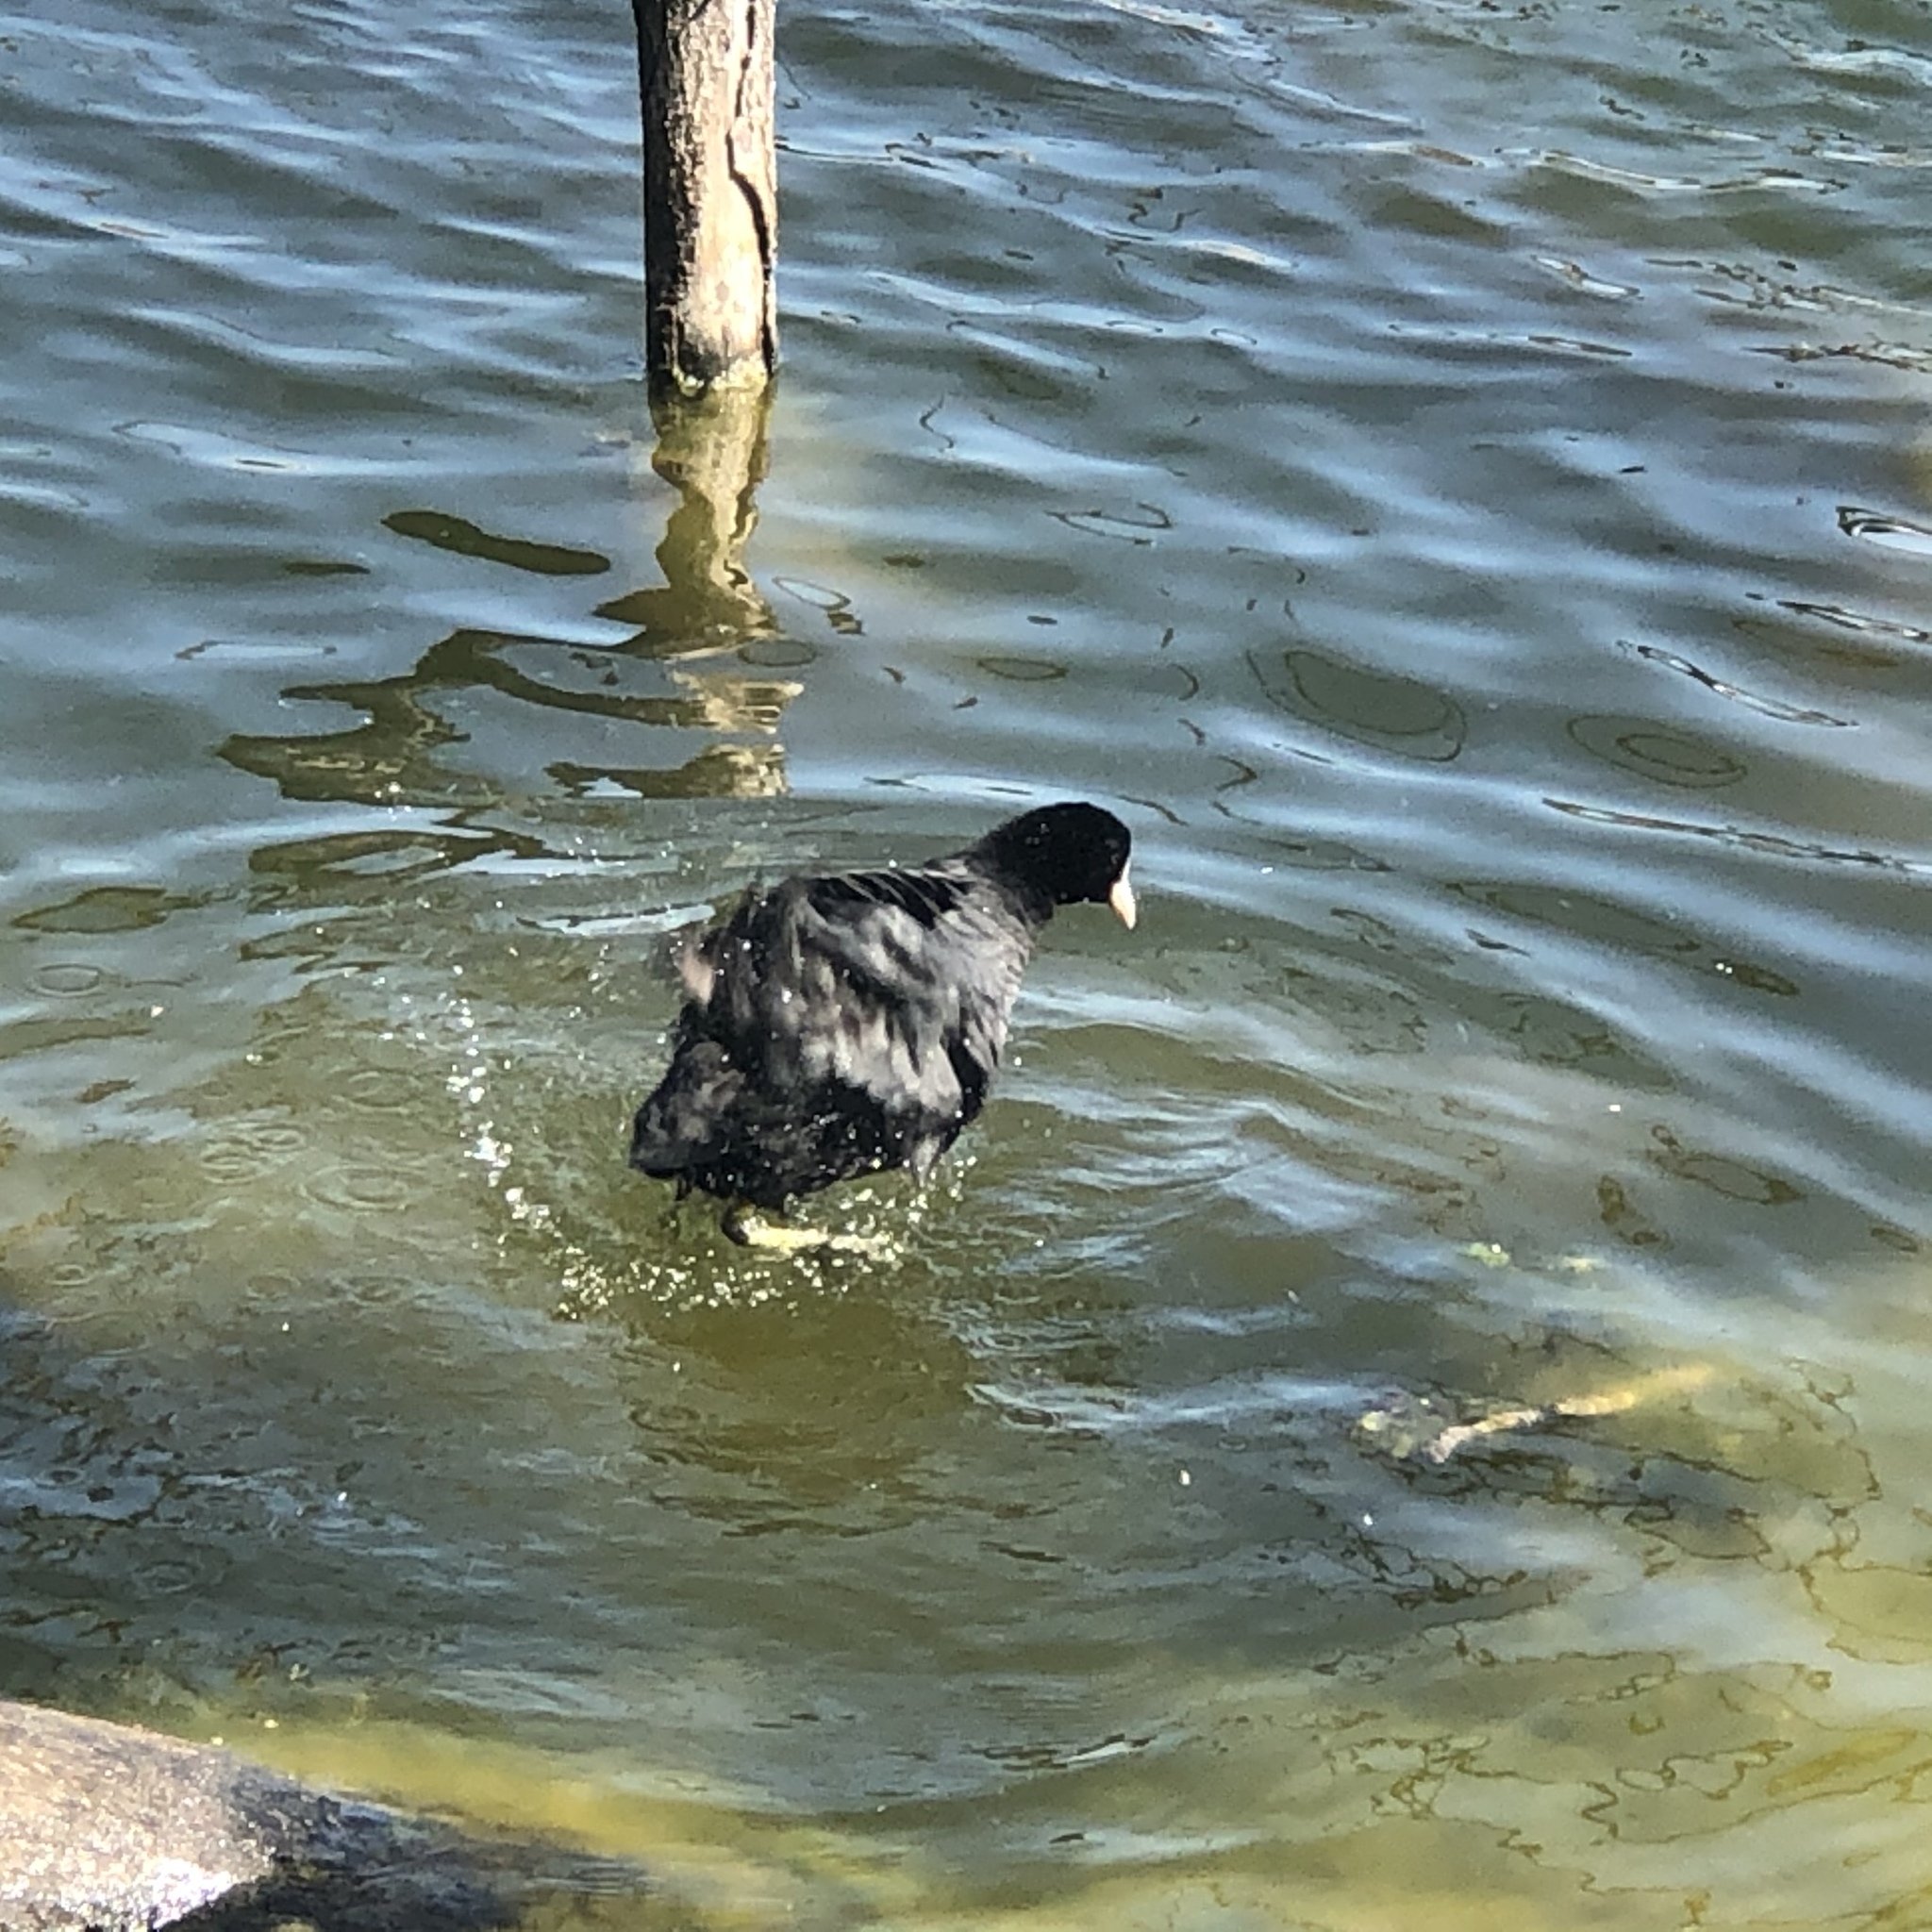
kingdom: Animalia
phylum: Chordata
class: Aves
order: Gruiformes
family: Rallidae
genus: Fulica
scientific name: Fulica atra
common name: Eurasian coot
